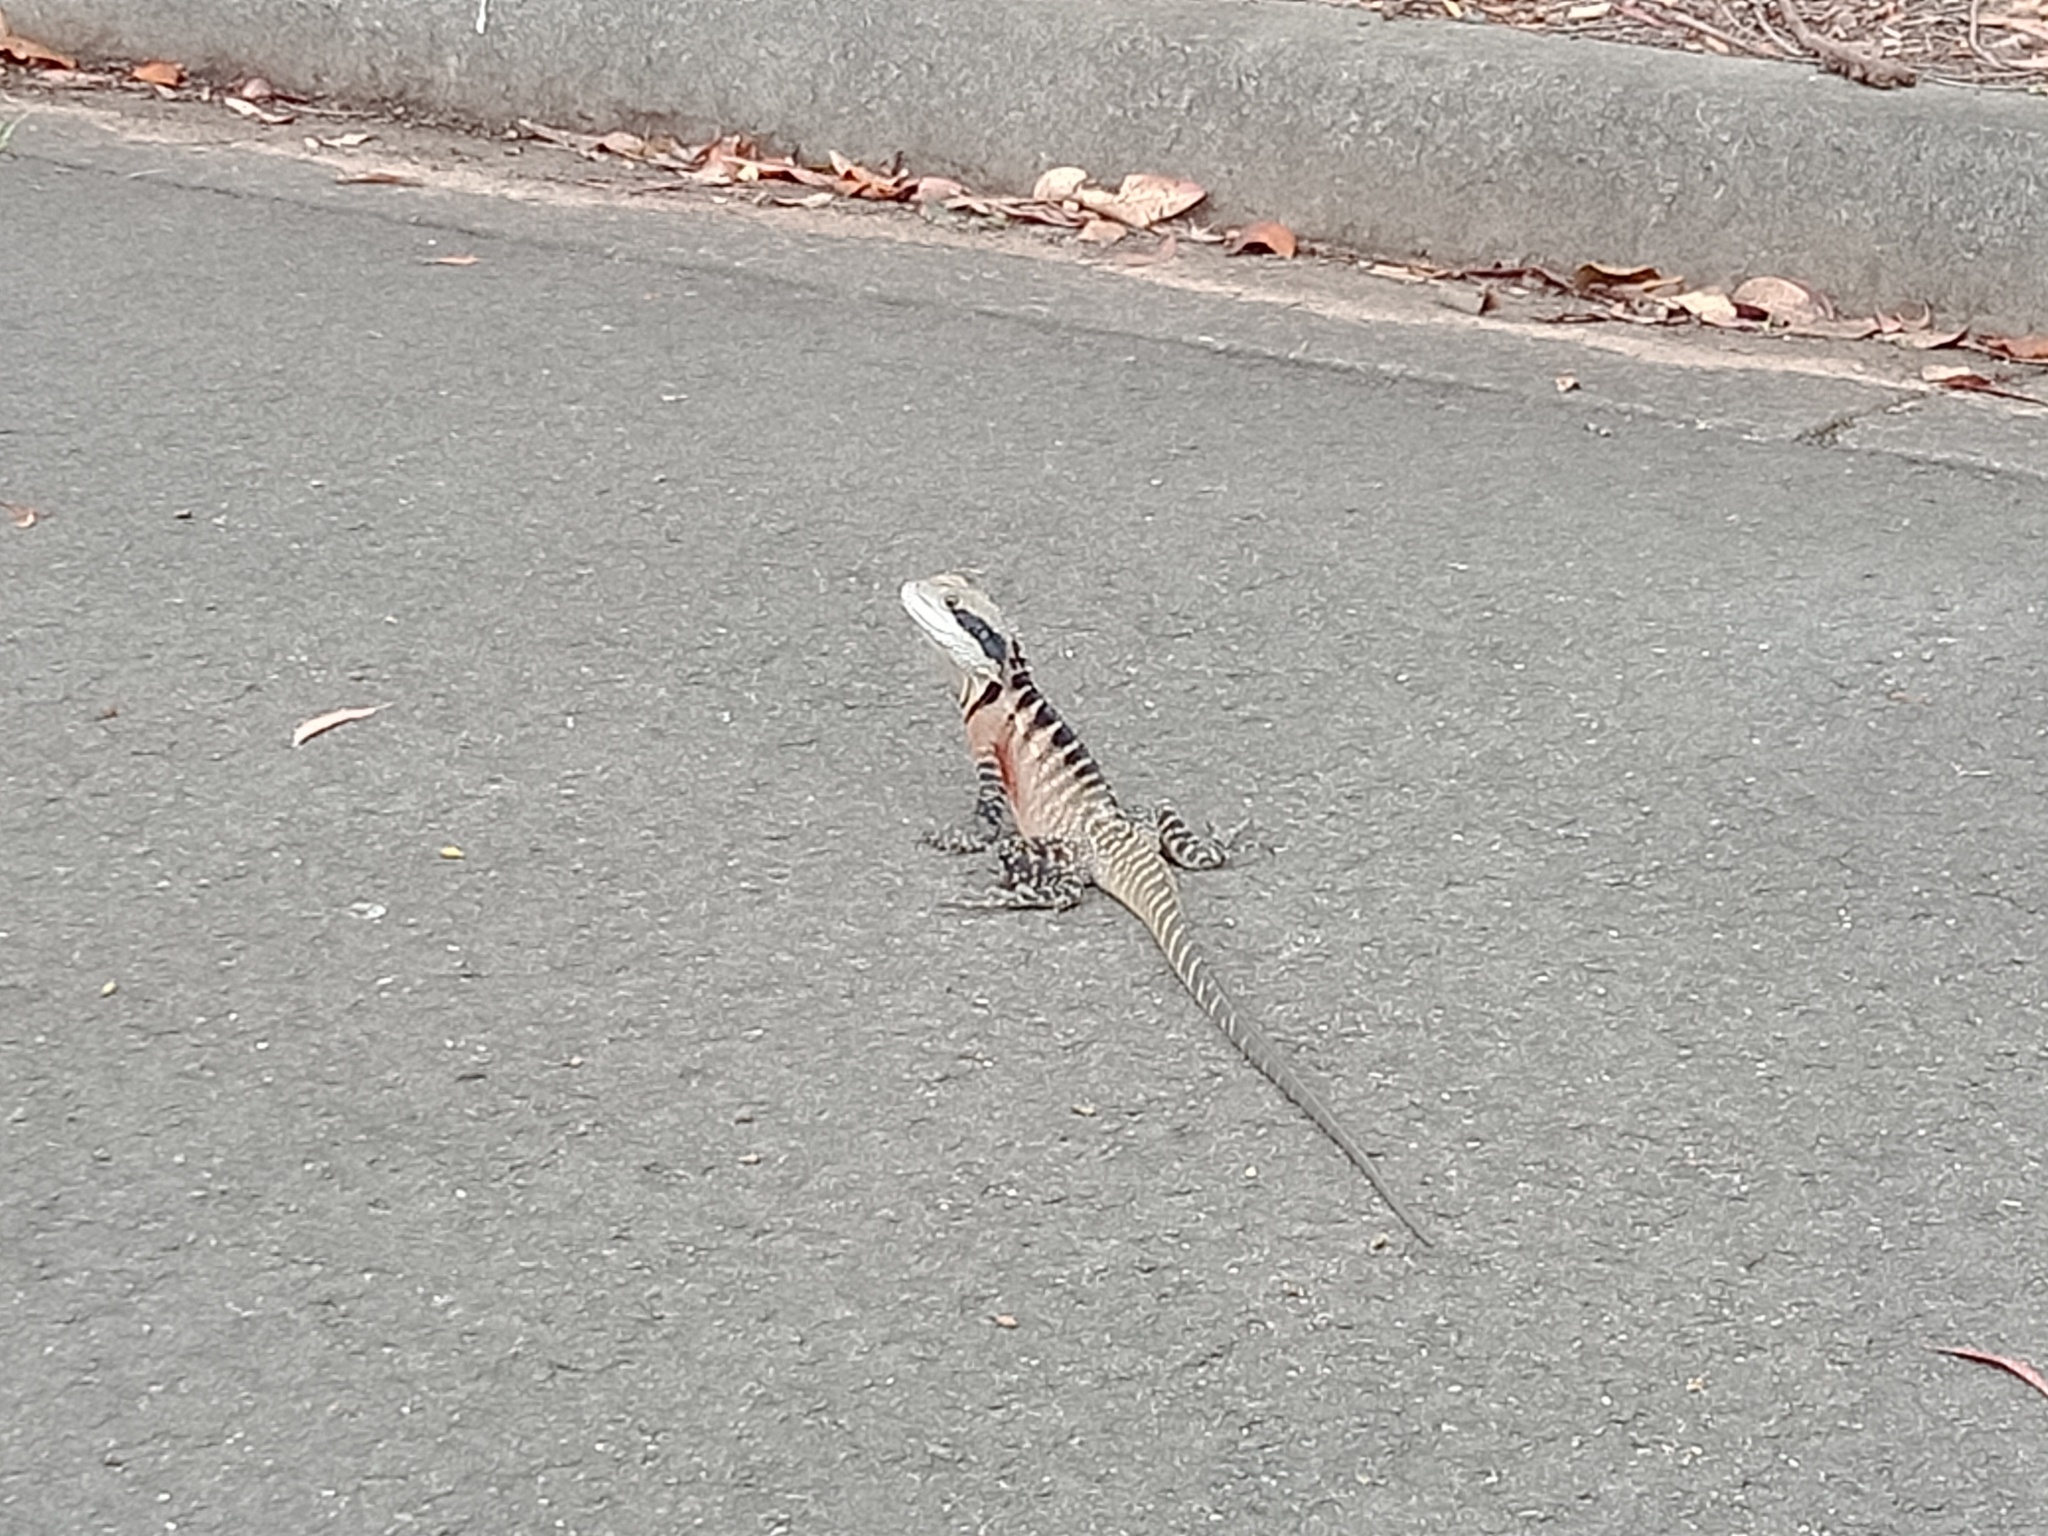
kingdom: Animalia
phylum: Chordata
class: Squamata
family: Agamidae
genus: Intellagama
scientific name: Intellagama lesueurii
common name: Eastern water dragon
